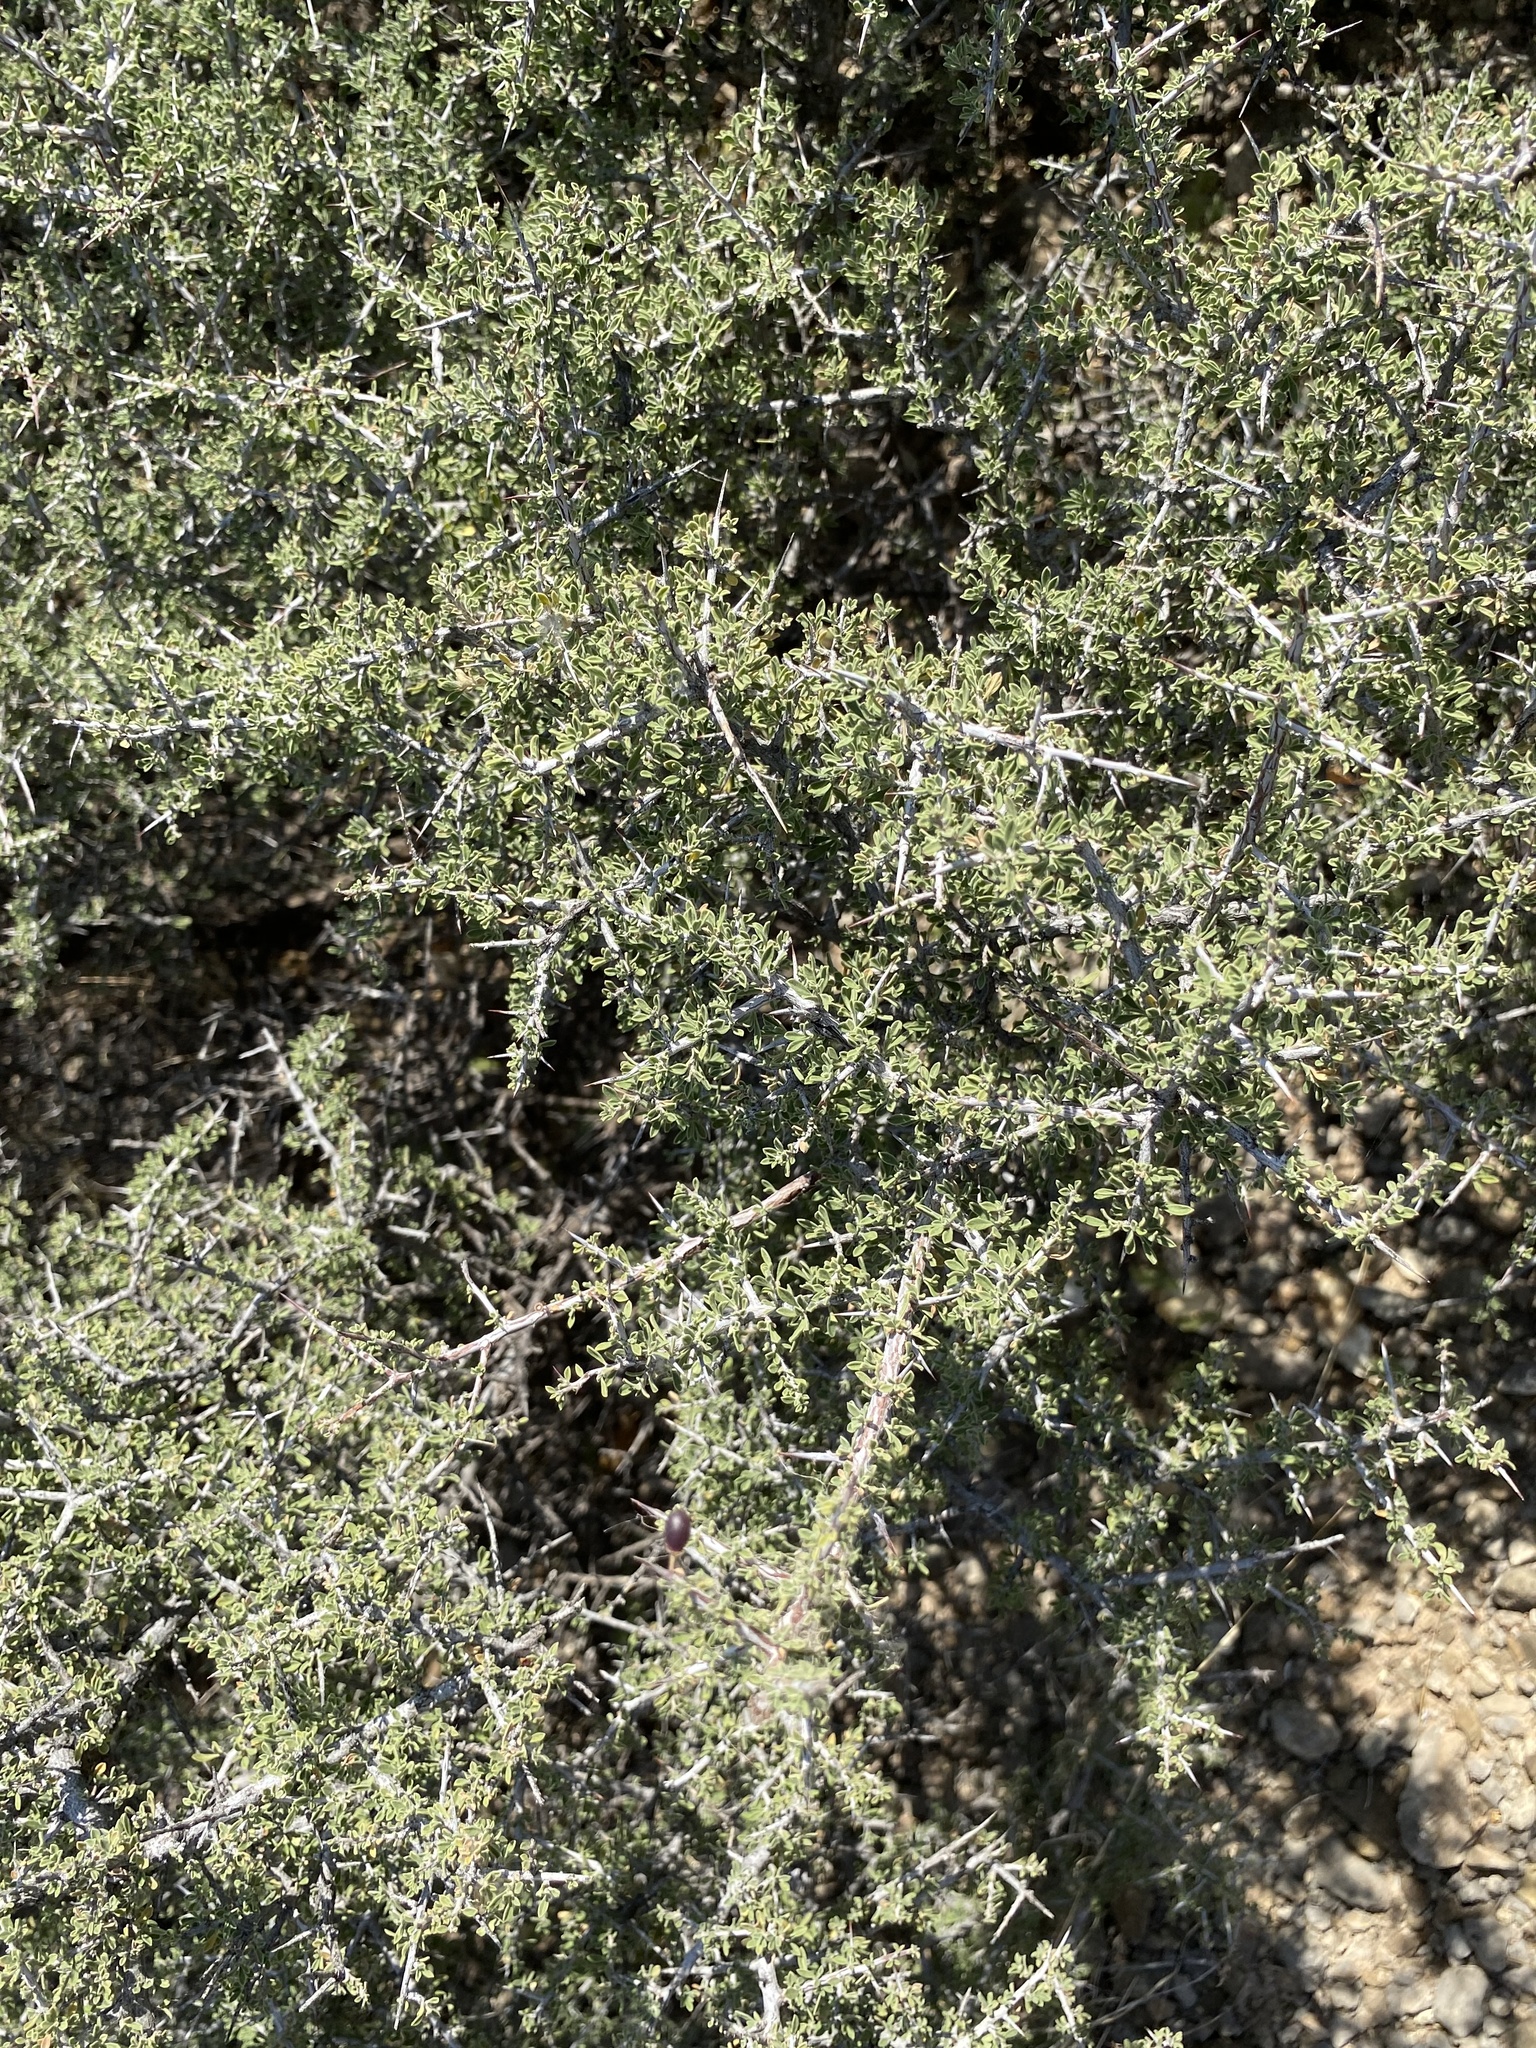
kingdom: Plantae
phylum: Tracheophyta
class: Magnoliopsida
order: Rosales
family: Rhamnaceae
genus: Condalia
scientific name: Condalia warnockii
